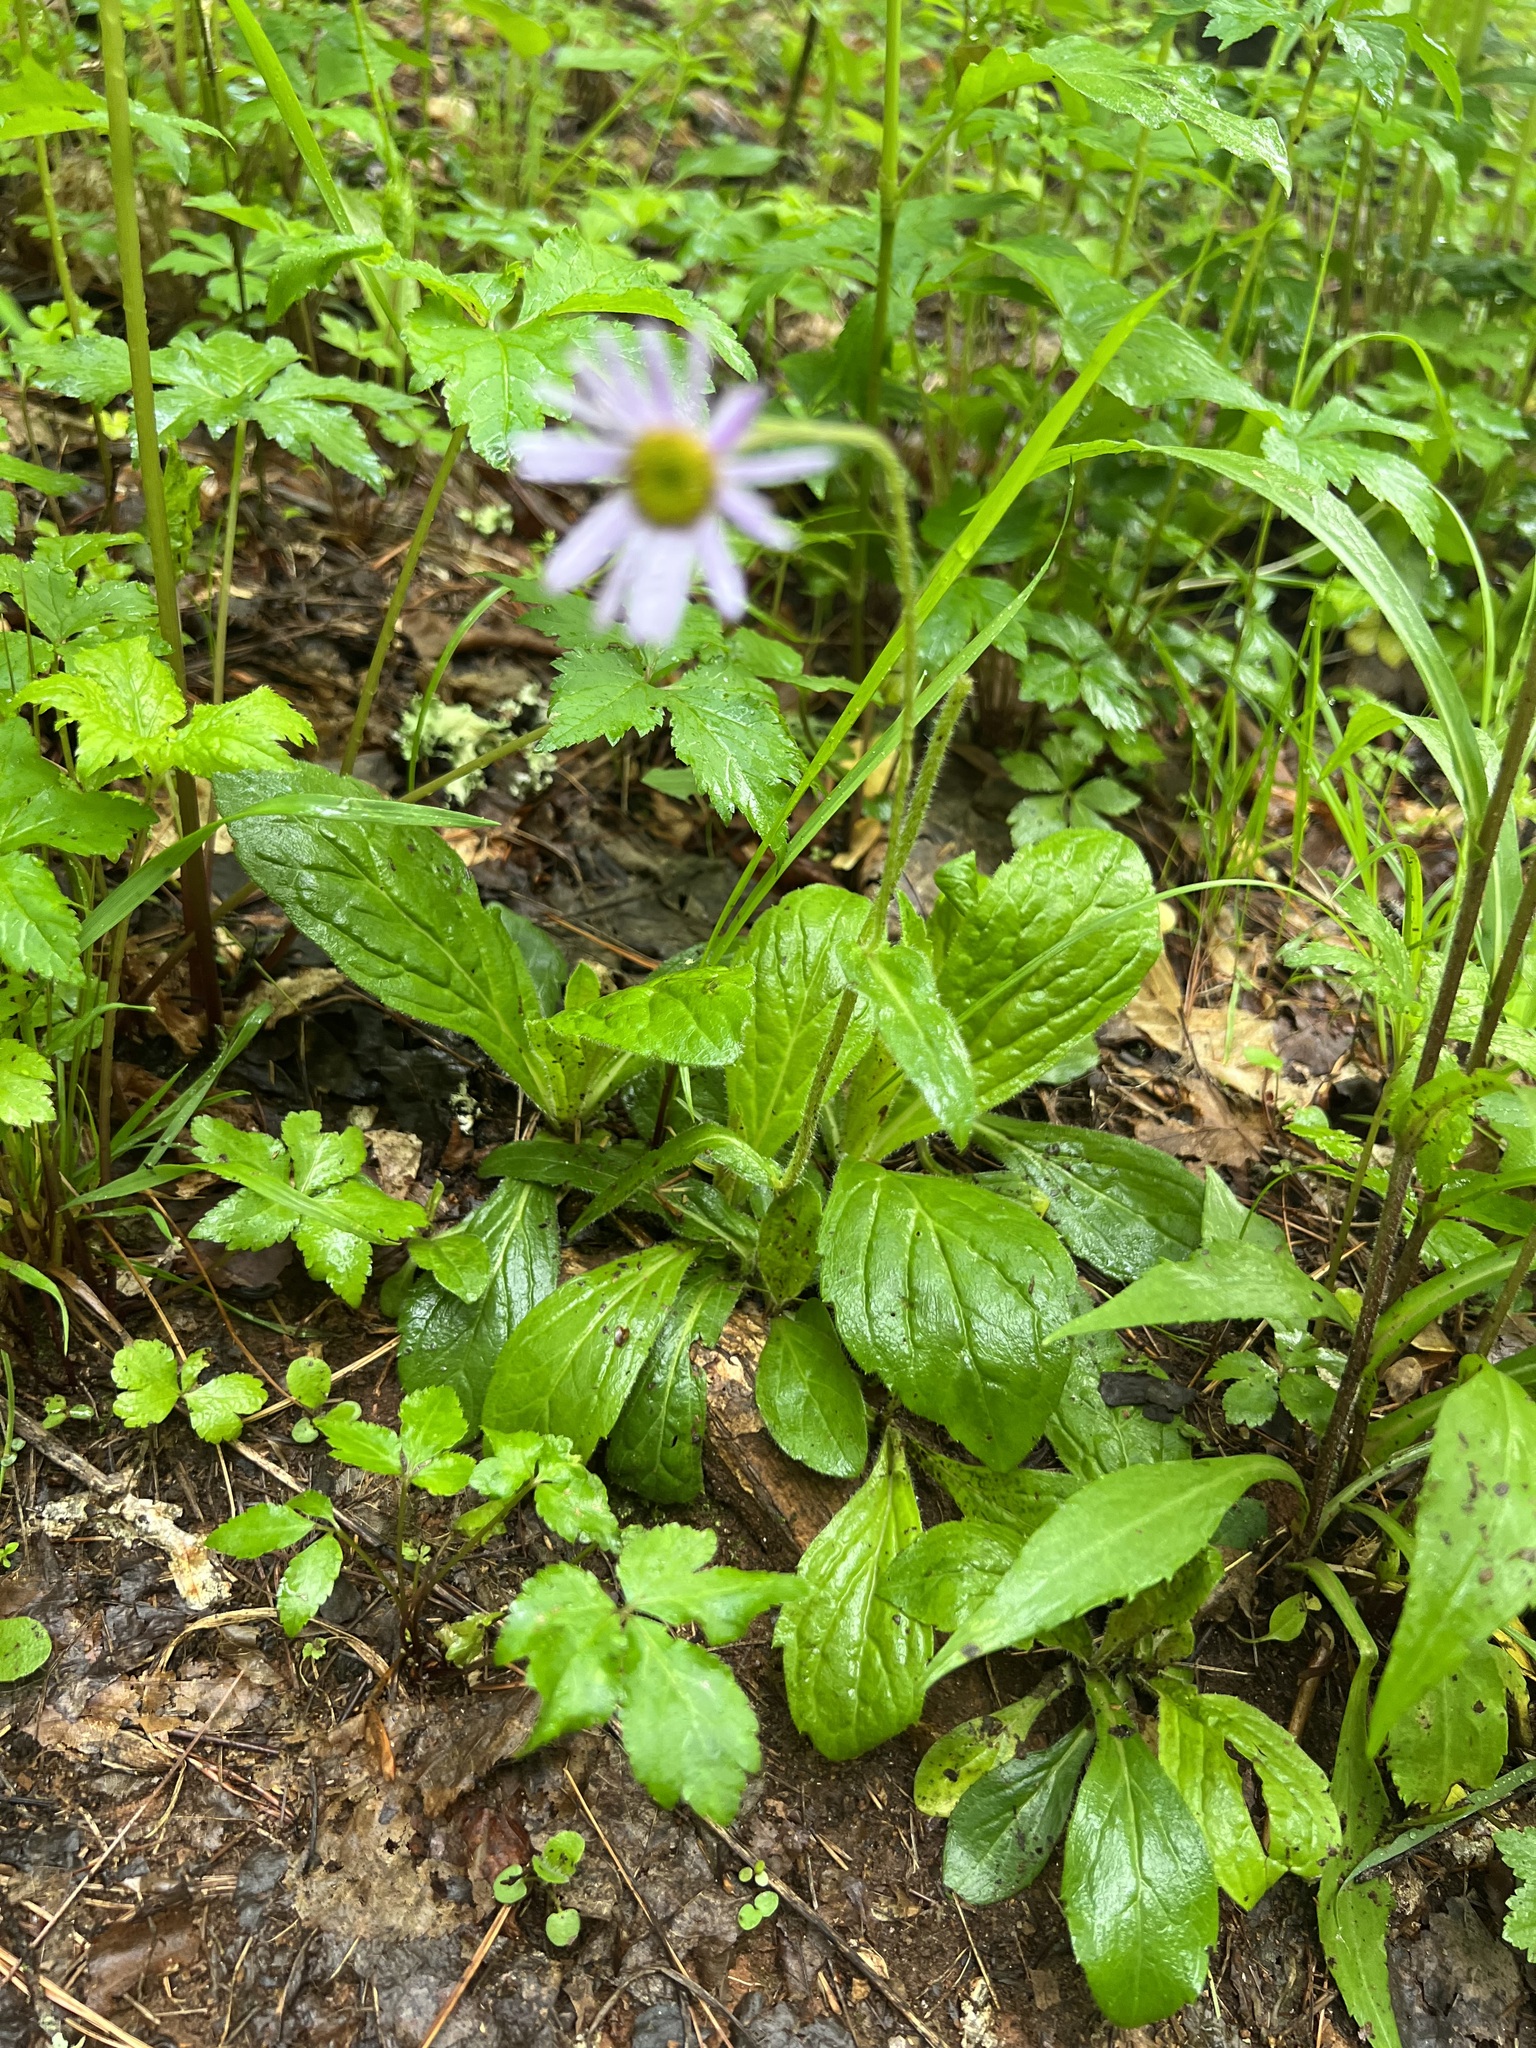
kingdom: Plantae
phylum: Tracheophyta
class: Magnoliopsida
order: Asterales
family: Asteraceae
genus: Erigeron
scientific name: Erigeron pulchellus
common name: Hairy fleabane
